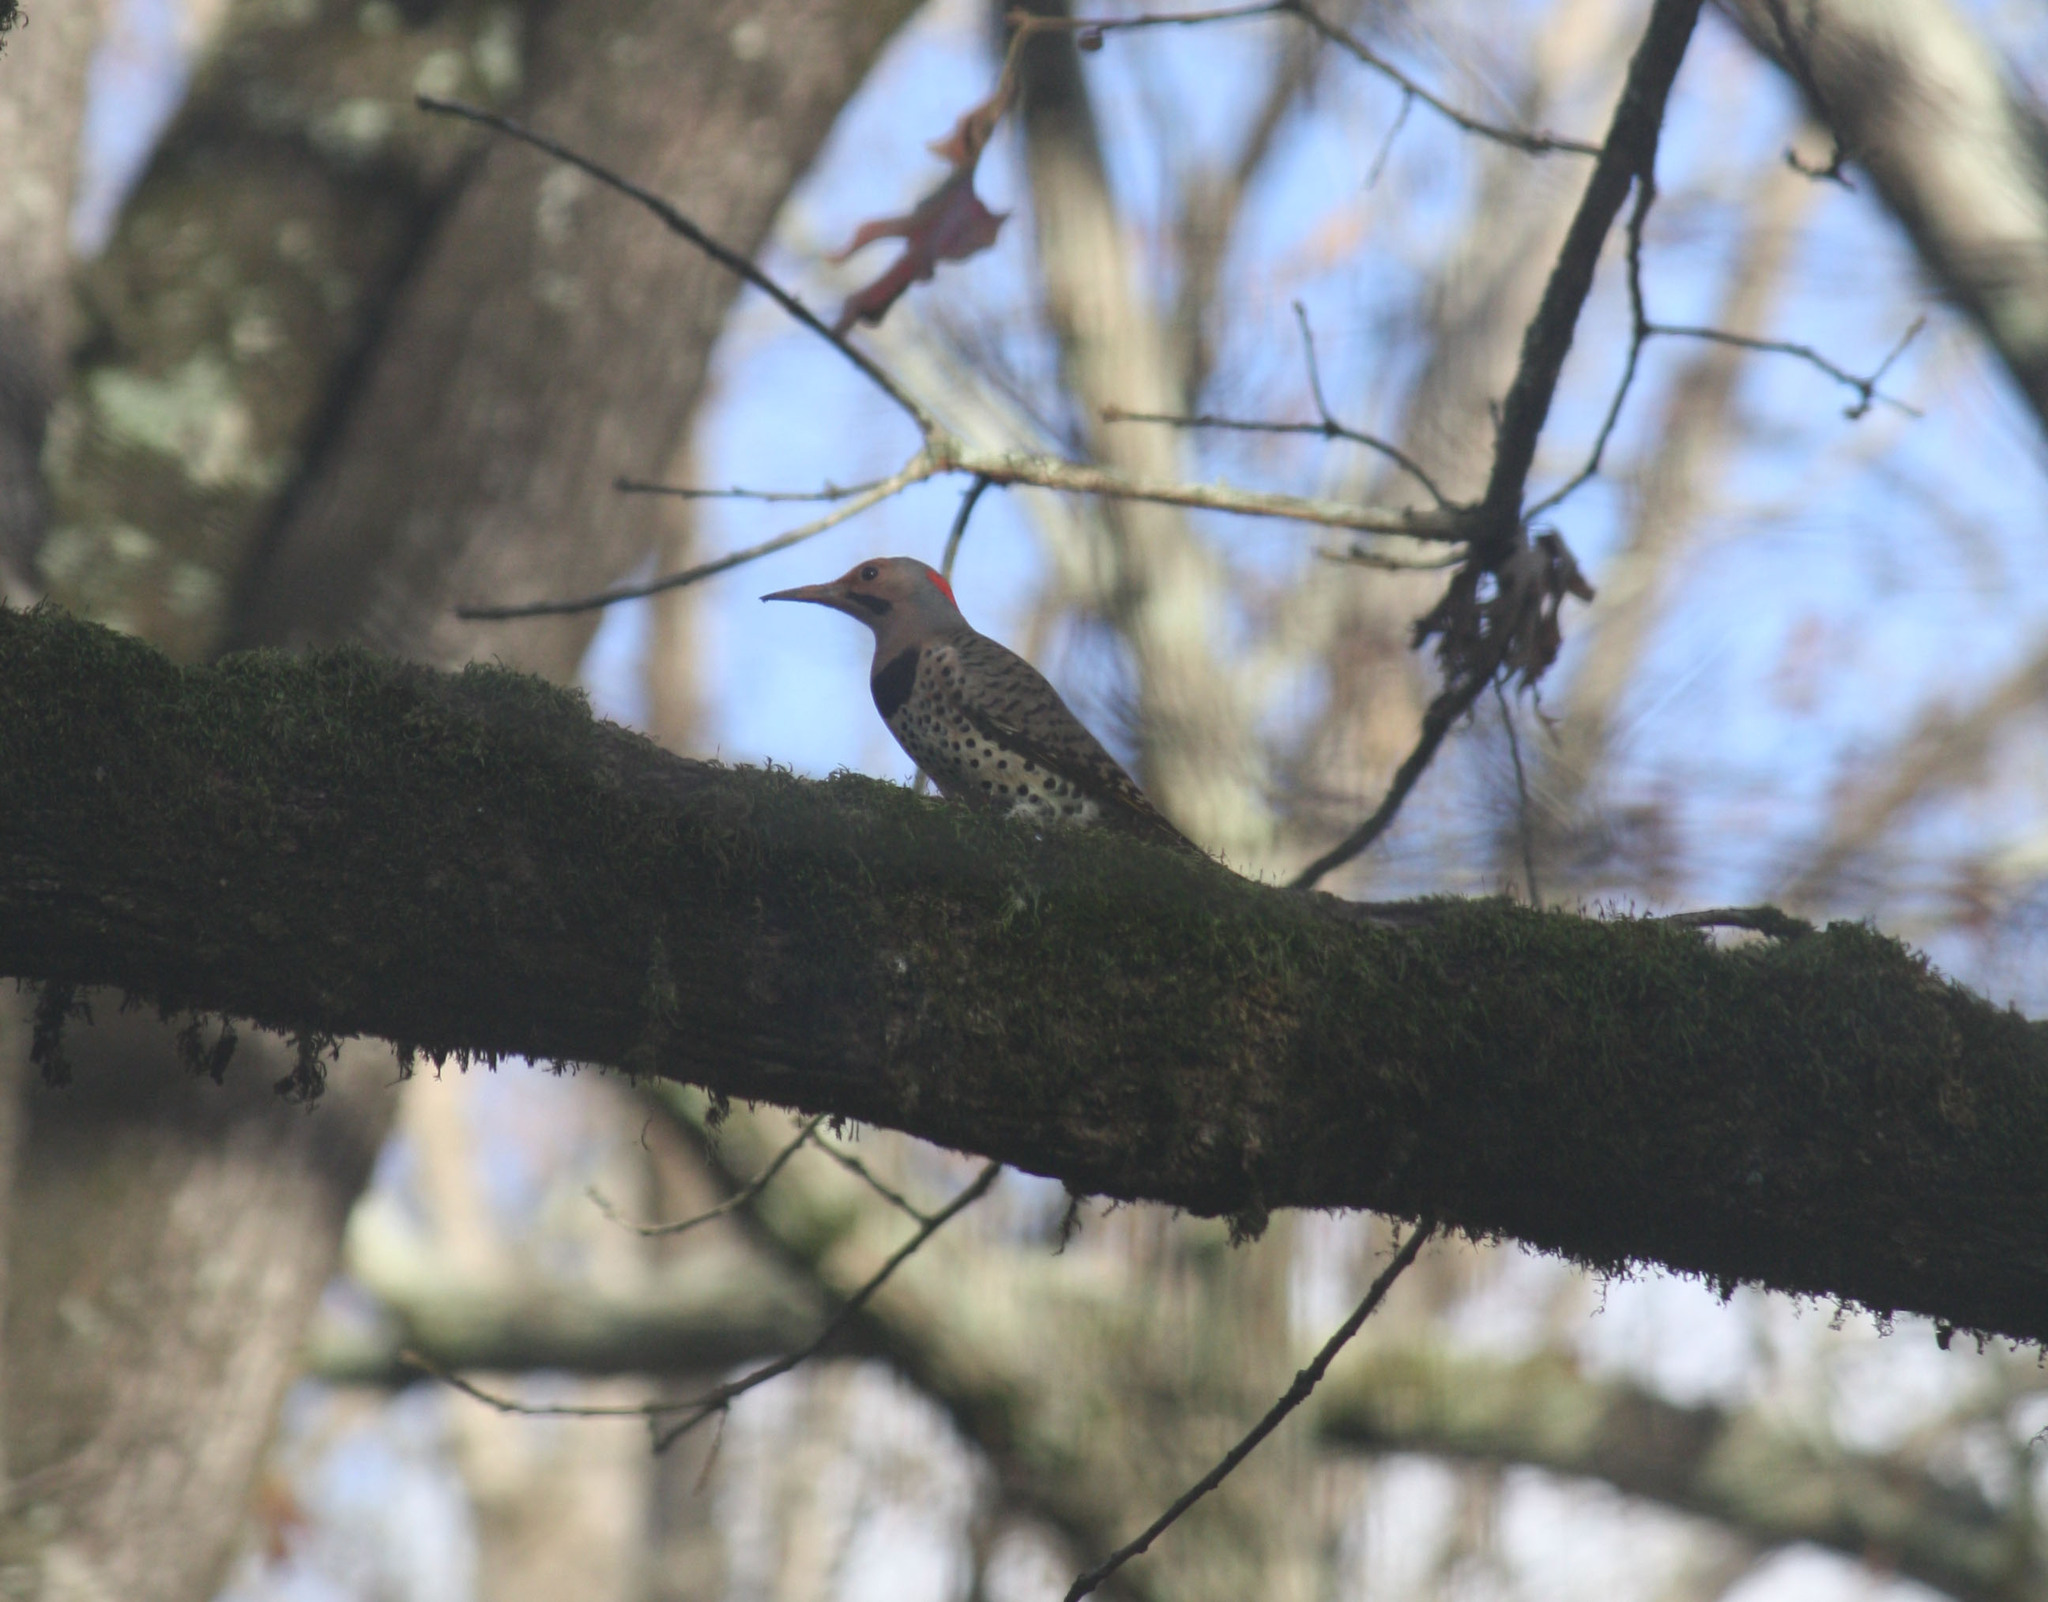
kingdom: Animalia
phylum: Chordata
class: Aves
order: Piciformes
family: Picidae
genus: Colaptes
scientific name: Colaptes auratus
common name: Northern flicker
